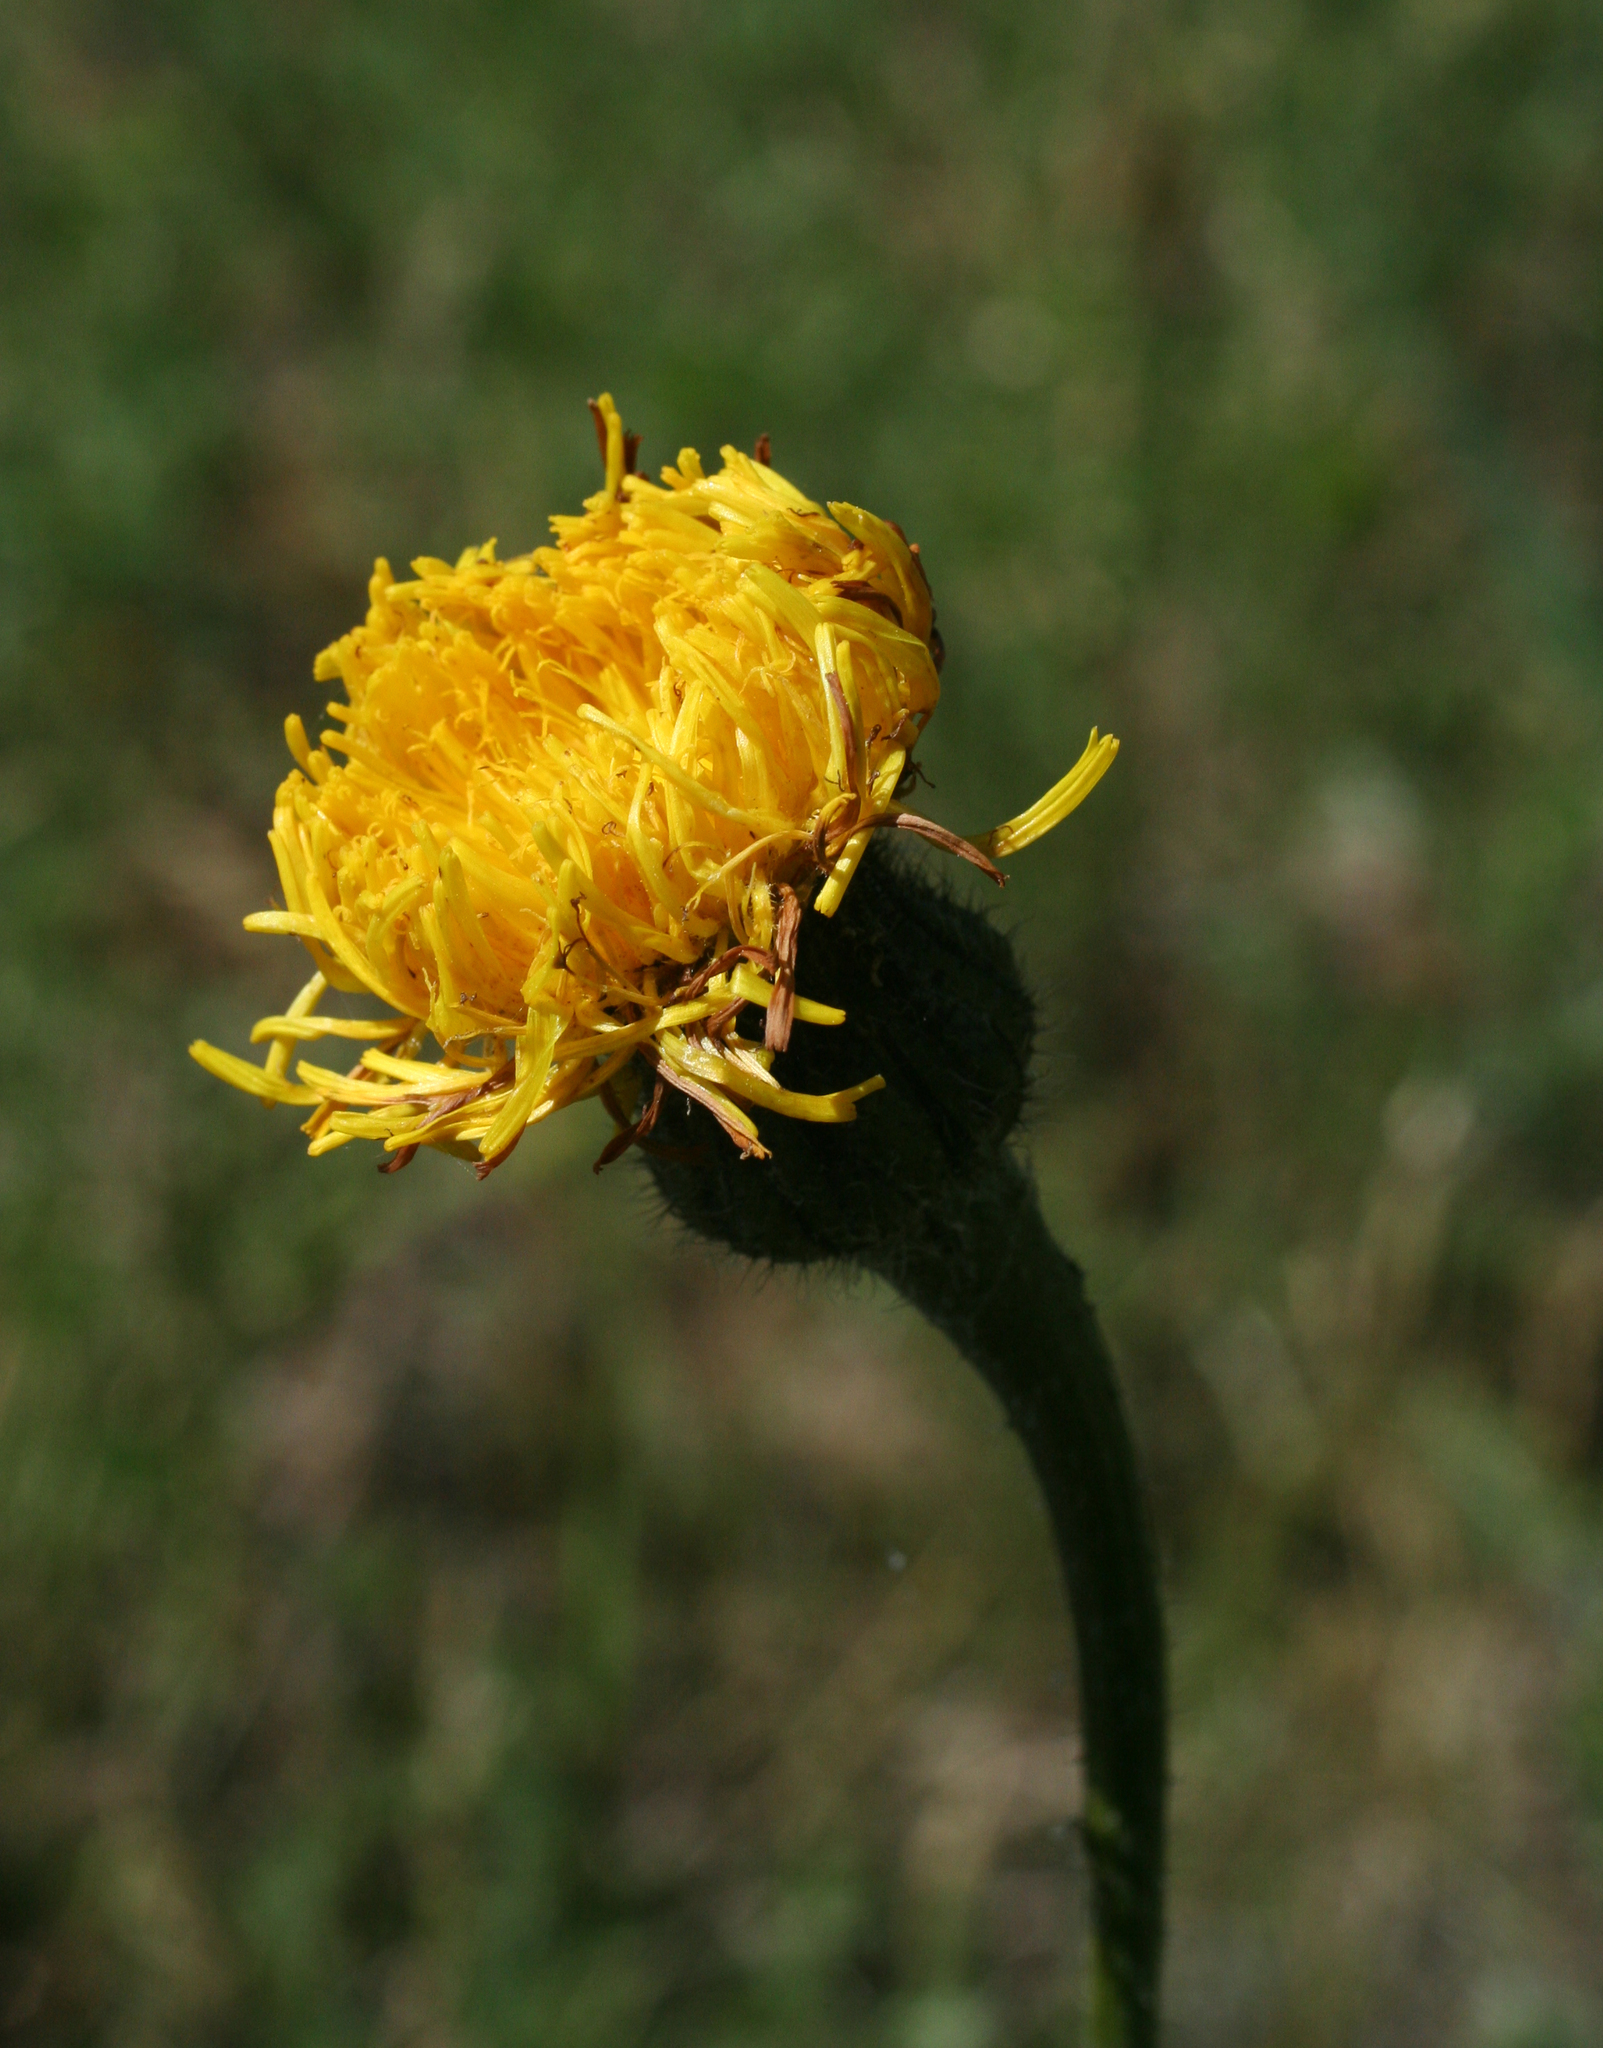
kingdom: Plantae
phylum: Tracheophyta
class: Magnoliopsida
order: Asterales
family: Asteraceae
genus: Trommsdorffia
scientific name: Trommsdorffia maculata
